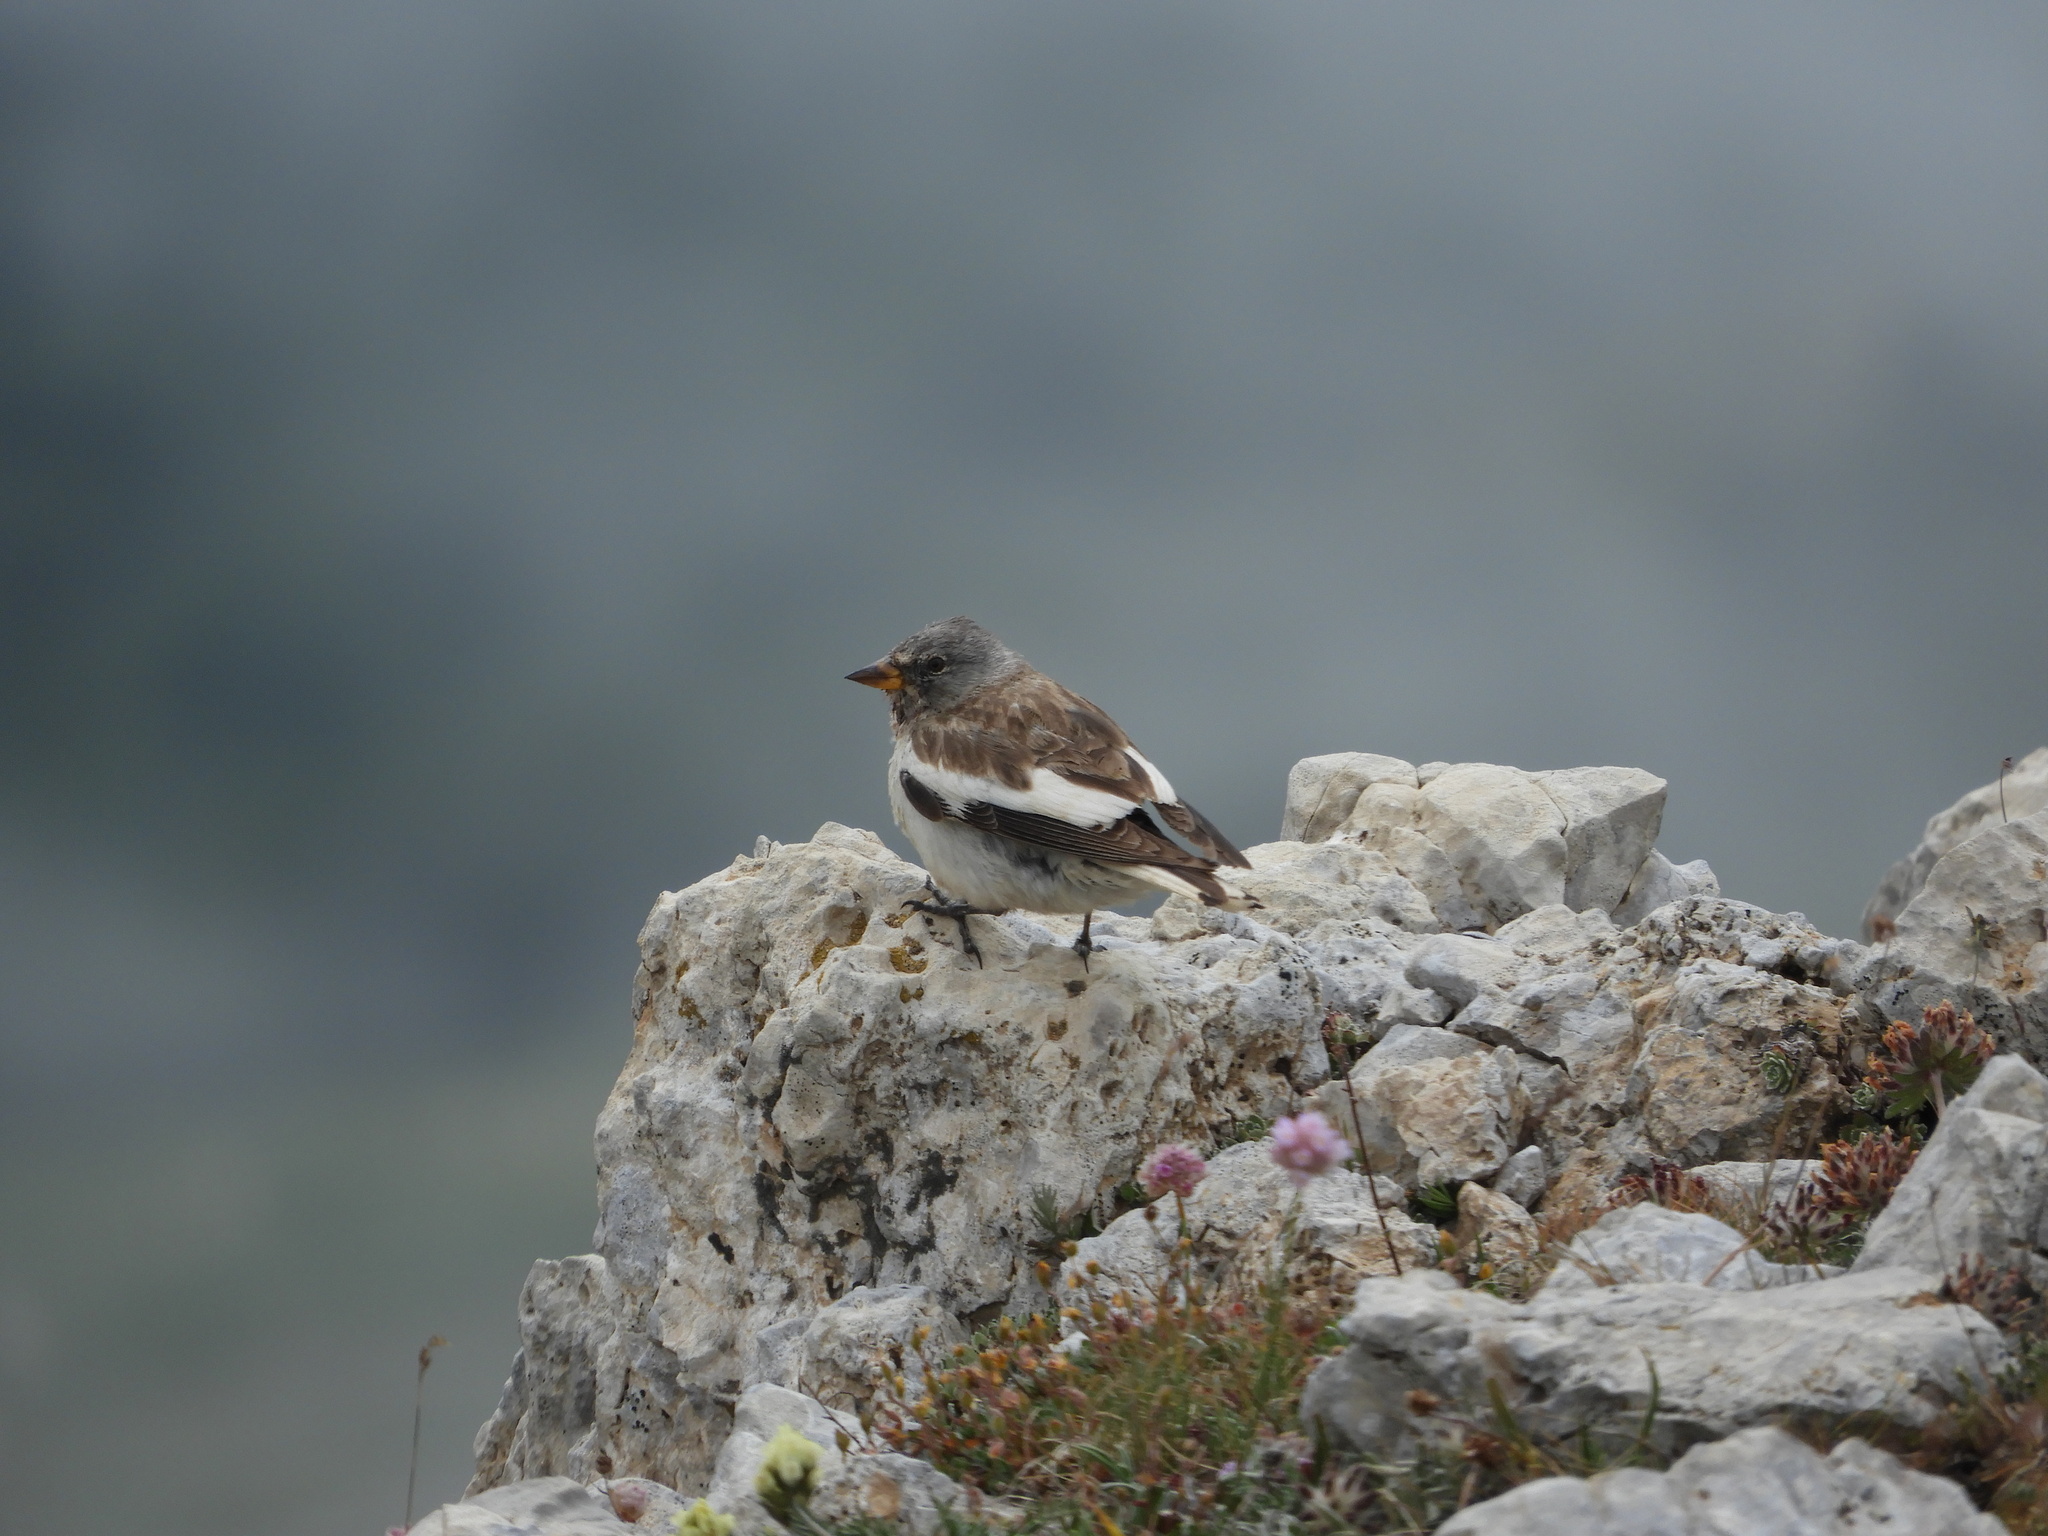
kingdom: Animalia
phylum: Chordata
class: Aves
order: Passeriformes
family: Passeridae
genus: Montifringilla
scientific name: Montifringilla nivalis
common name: White-winged snowfinch
